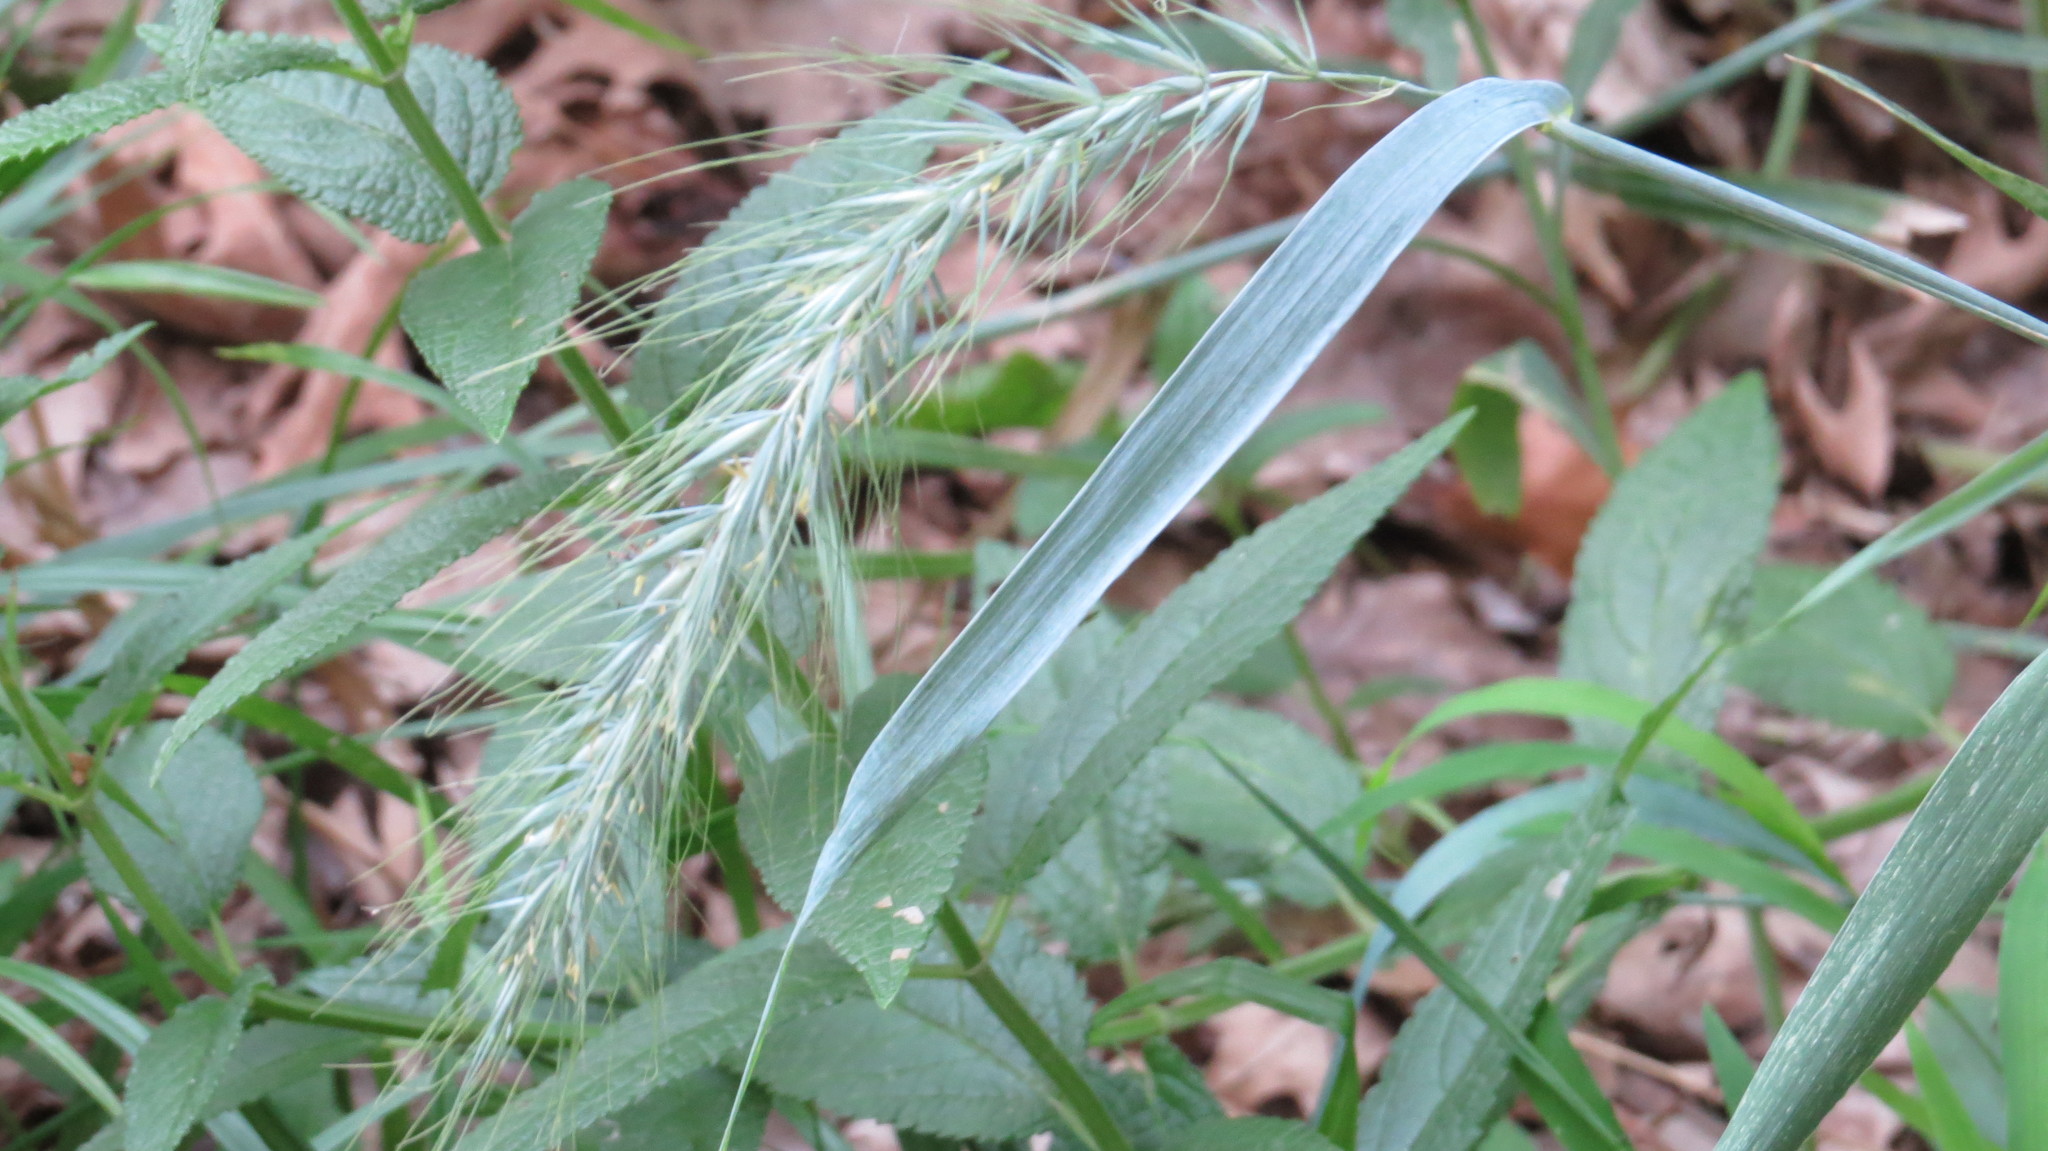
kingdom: Plantae
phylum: Tracheophyta
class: Liliopsida
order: Poales
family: Poaceae
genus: Elymus
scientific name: Elymus canadensis
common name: Canada wild rye
